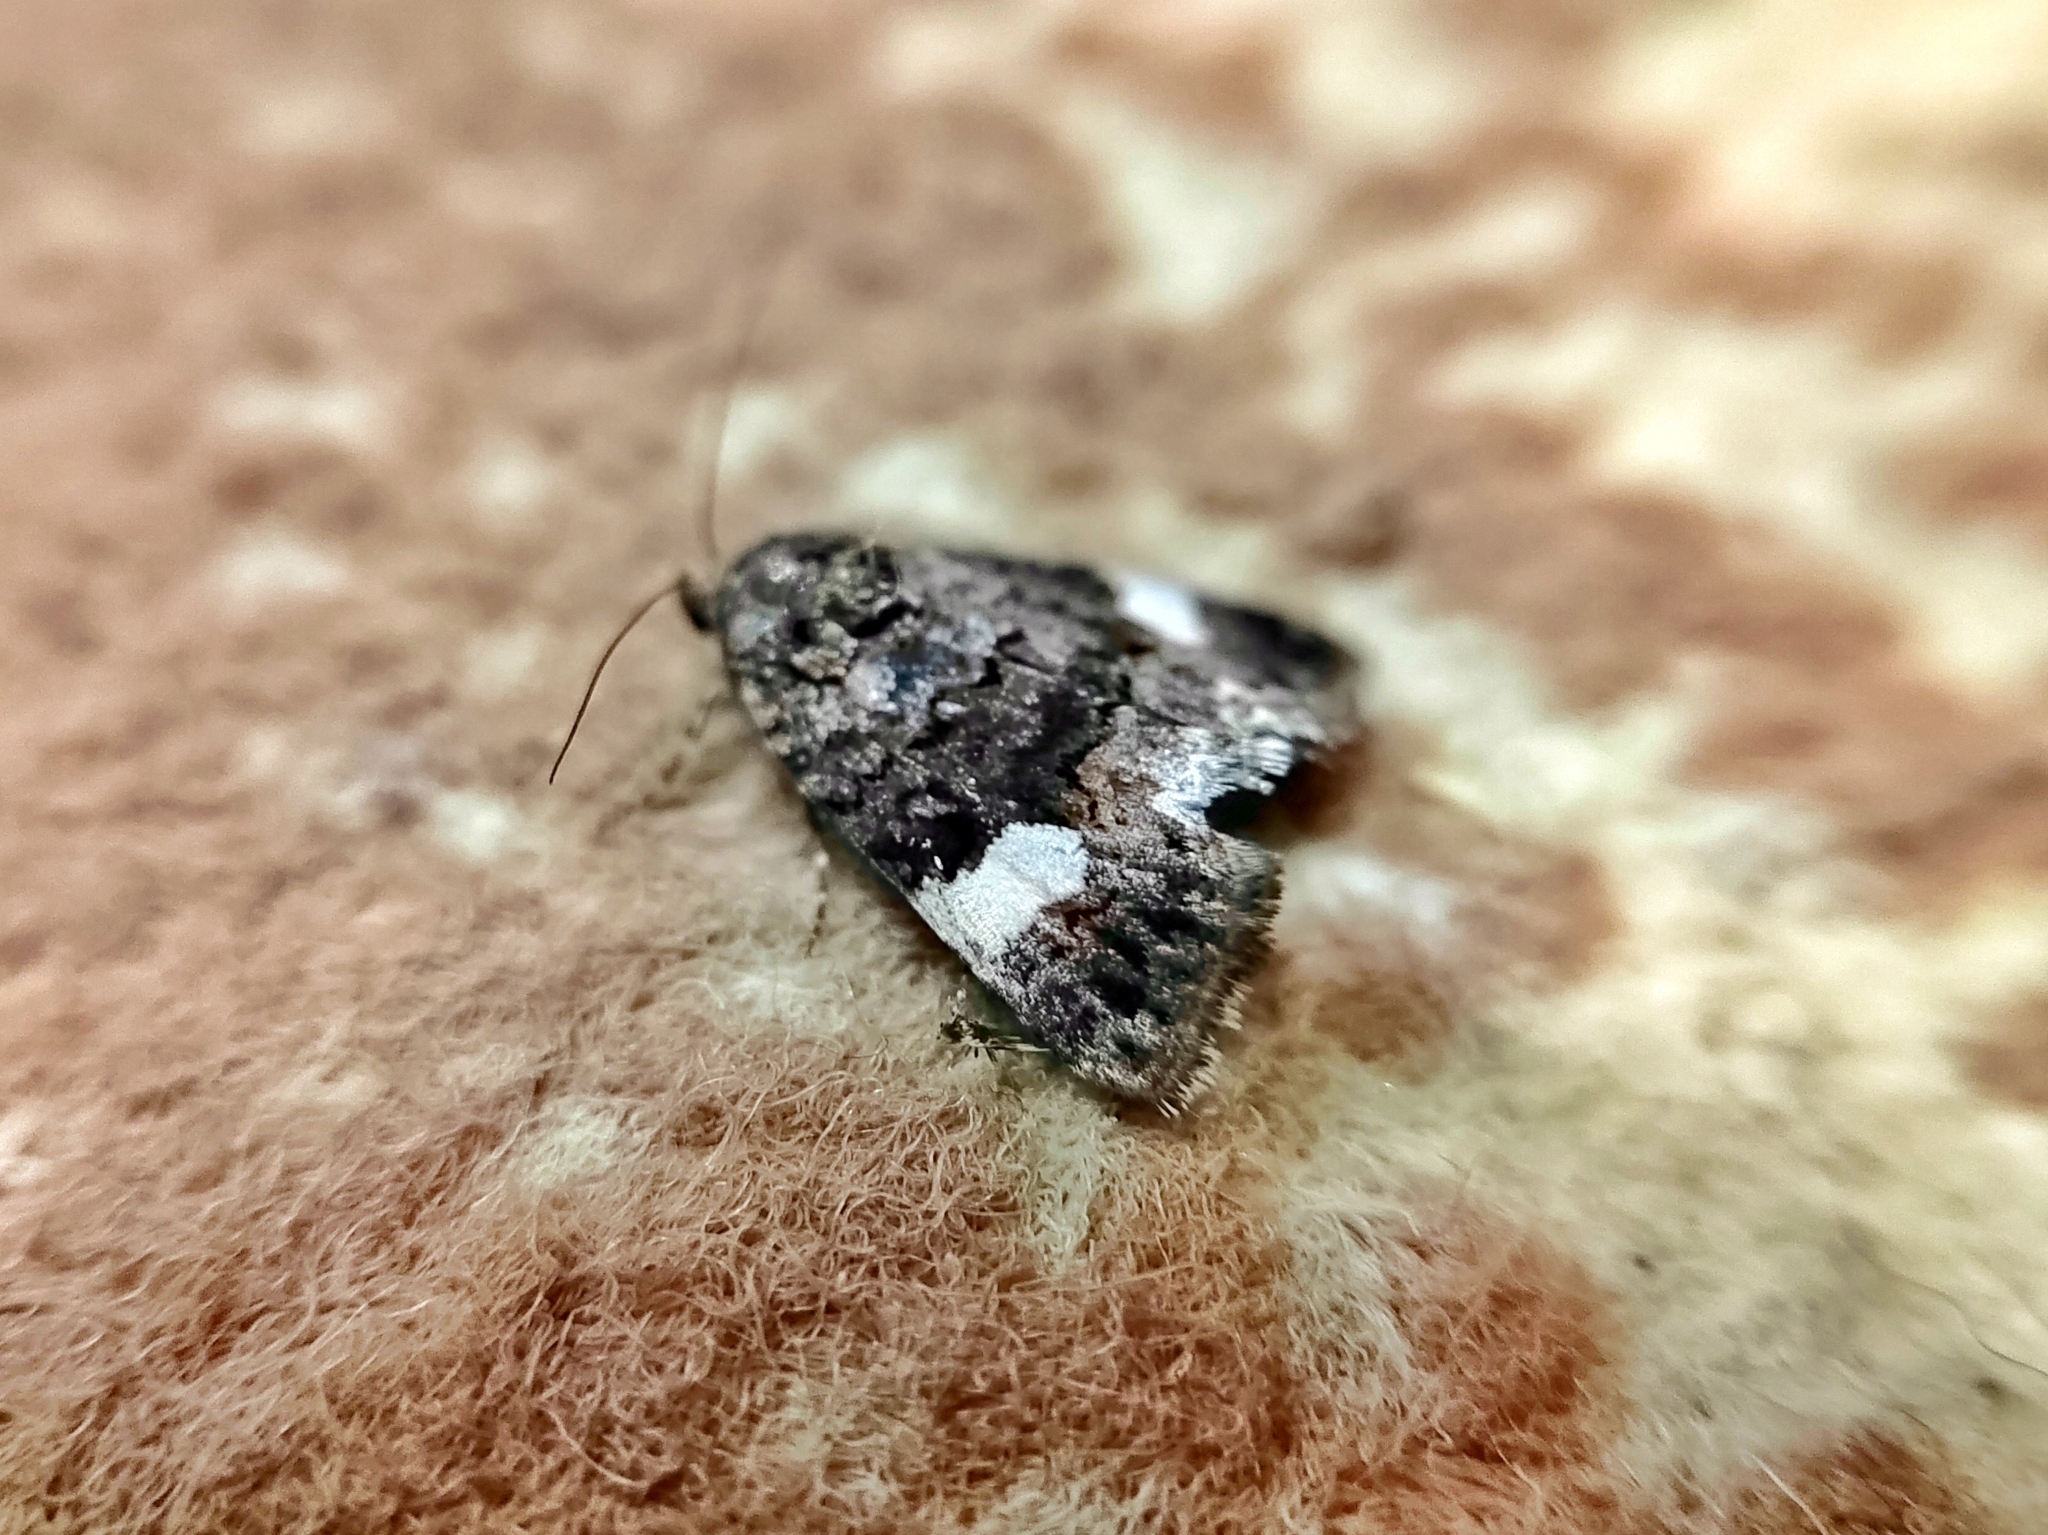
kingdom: Animalia
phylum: Arthropoda
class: Insecta
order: Lepidoptera
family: Erebidae
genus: Tyta
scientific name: Tyta luctuosa
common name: Four-spotted
